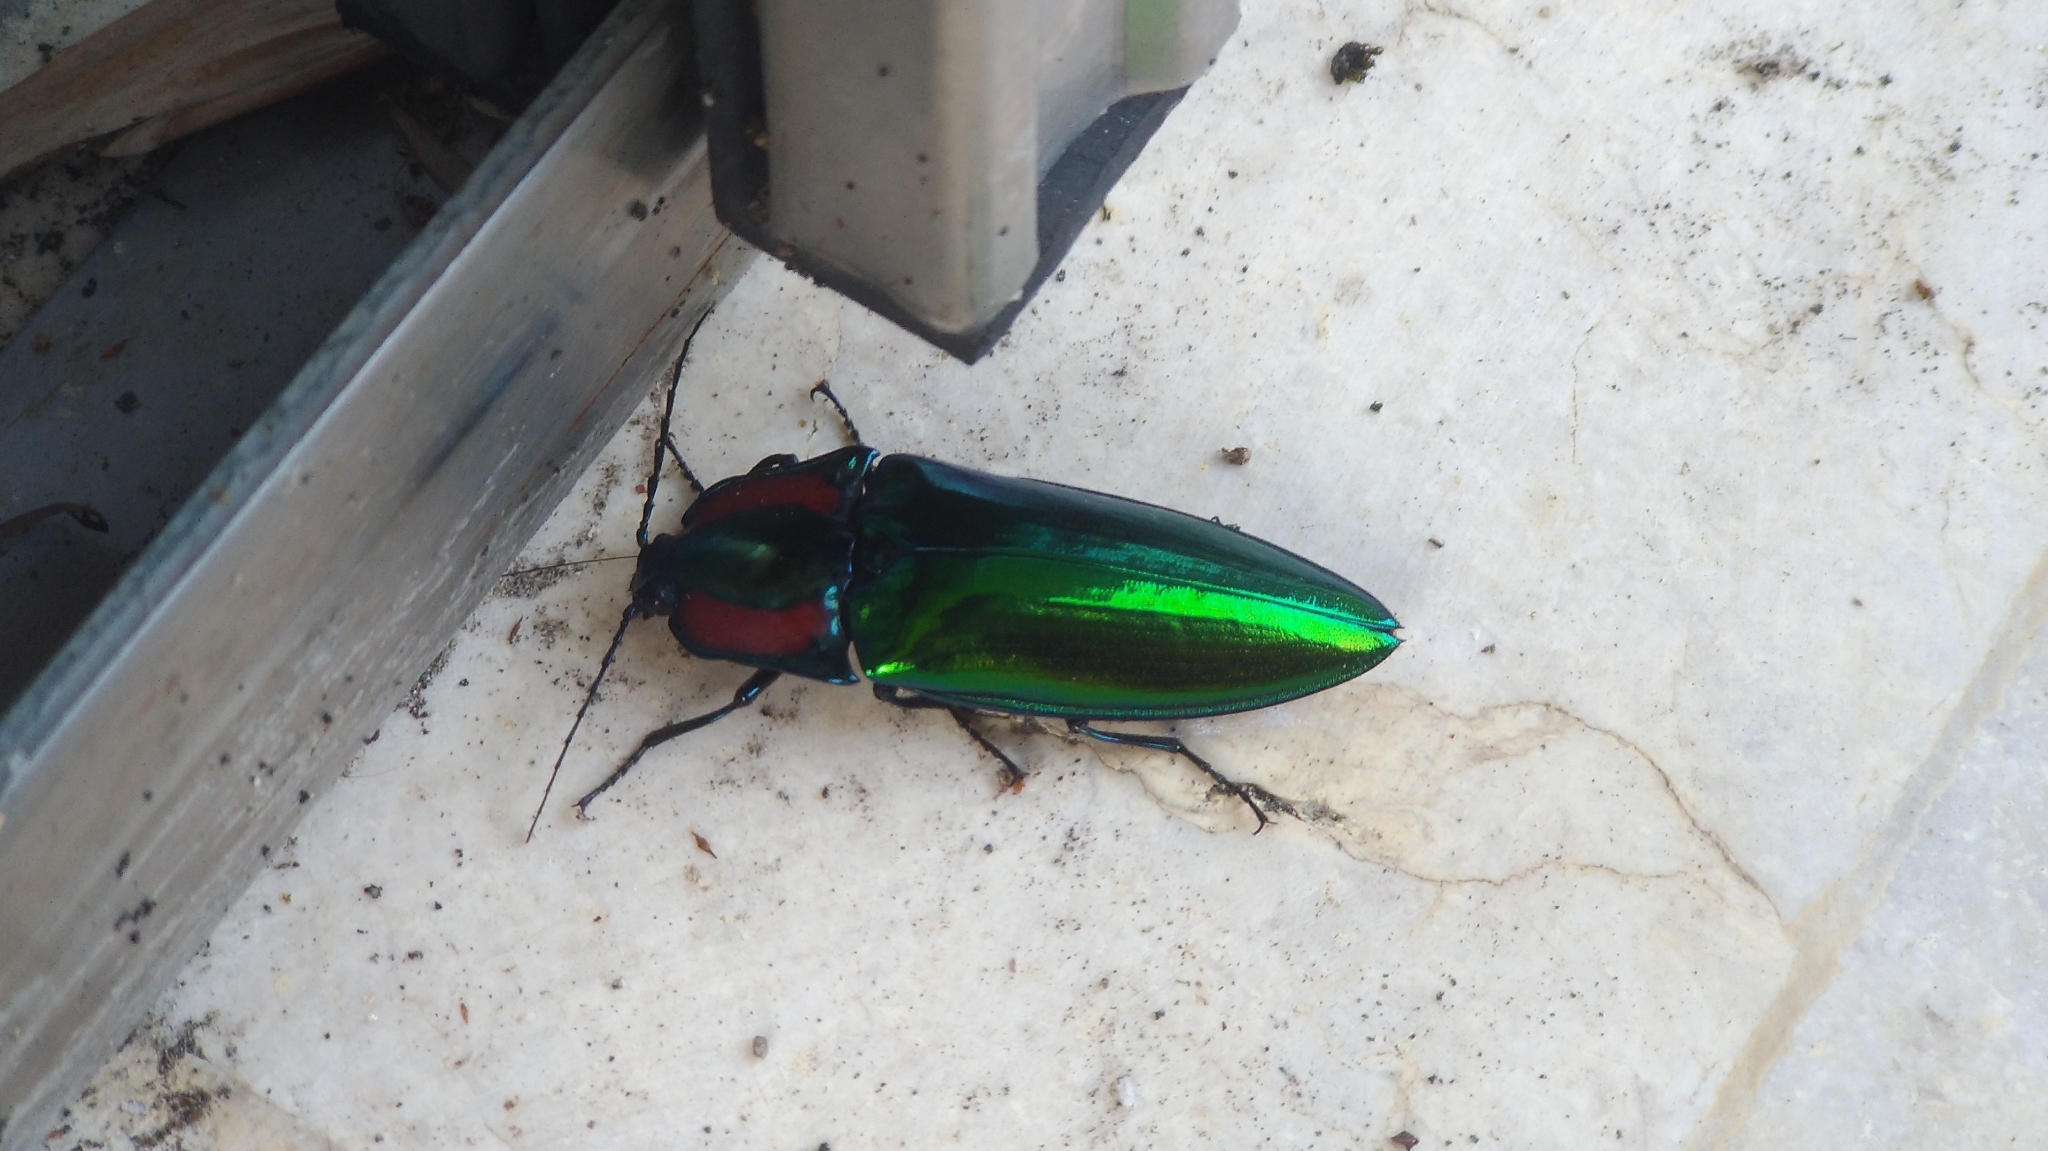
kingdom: Animalia
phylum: Arthropoda
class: Insecta
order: Coleoptera
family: Elateridae
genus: Campsosternus
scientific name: Campsosternus auratus
